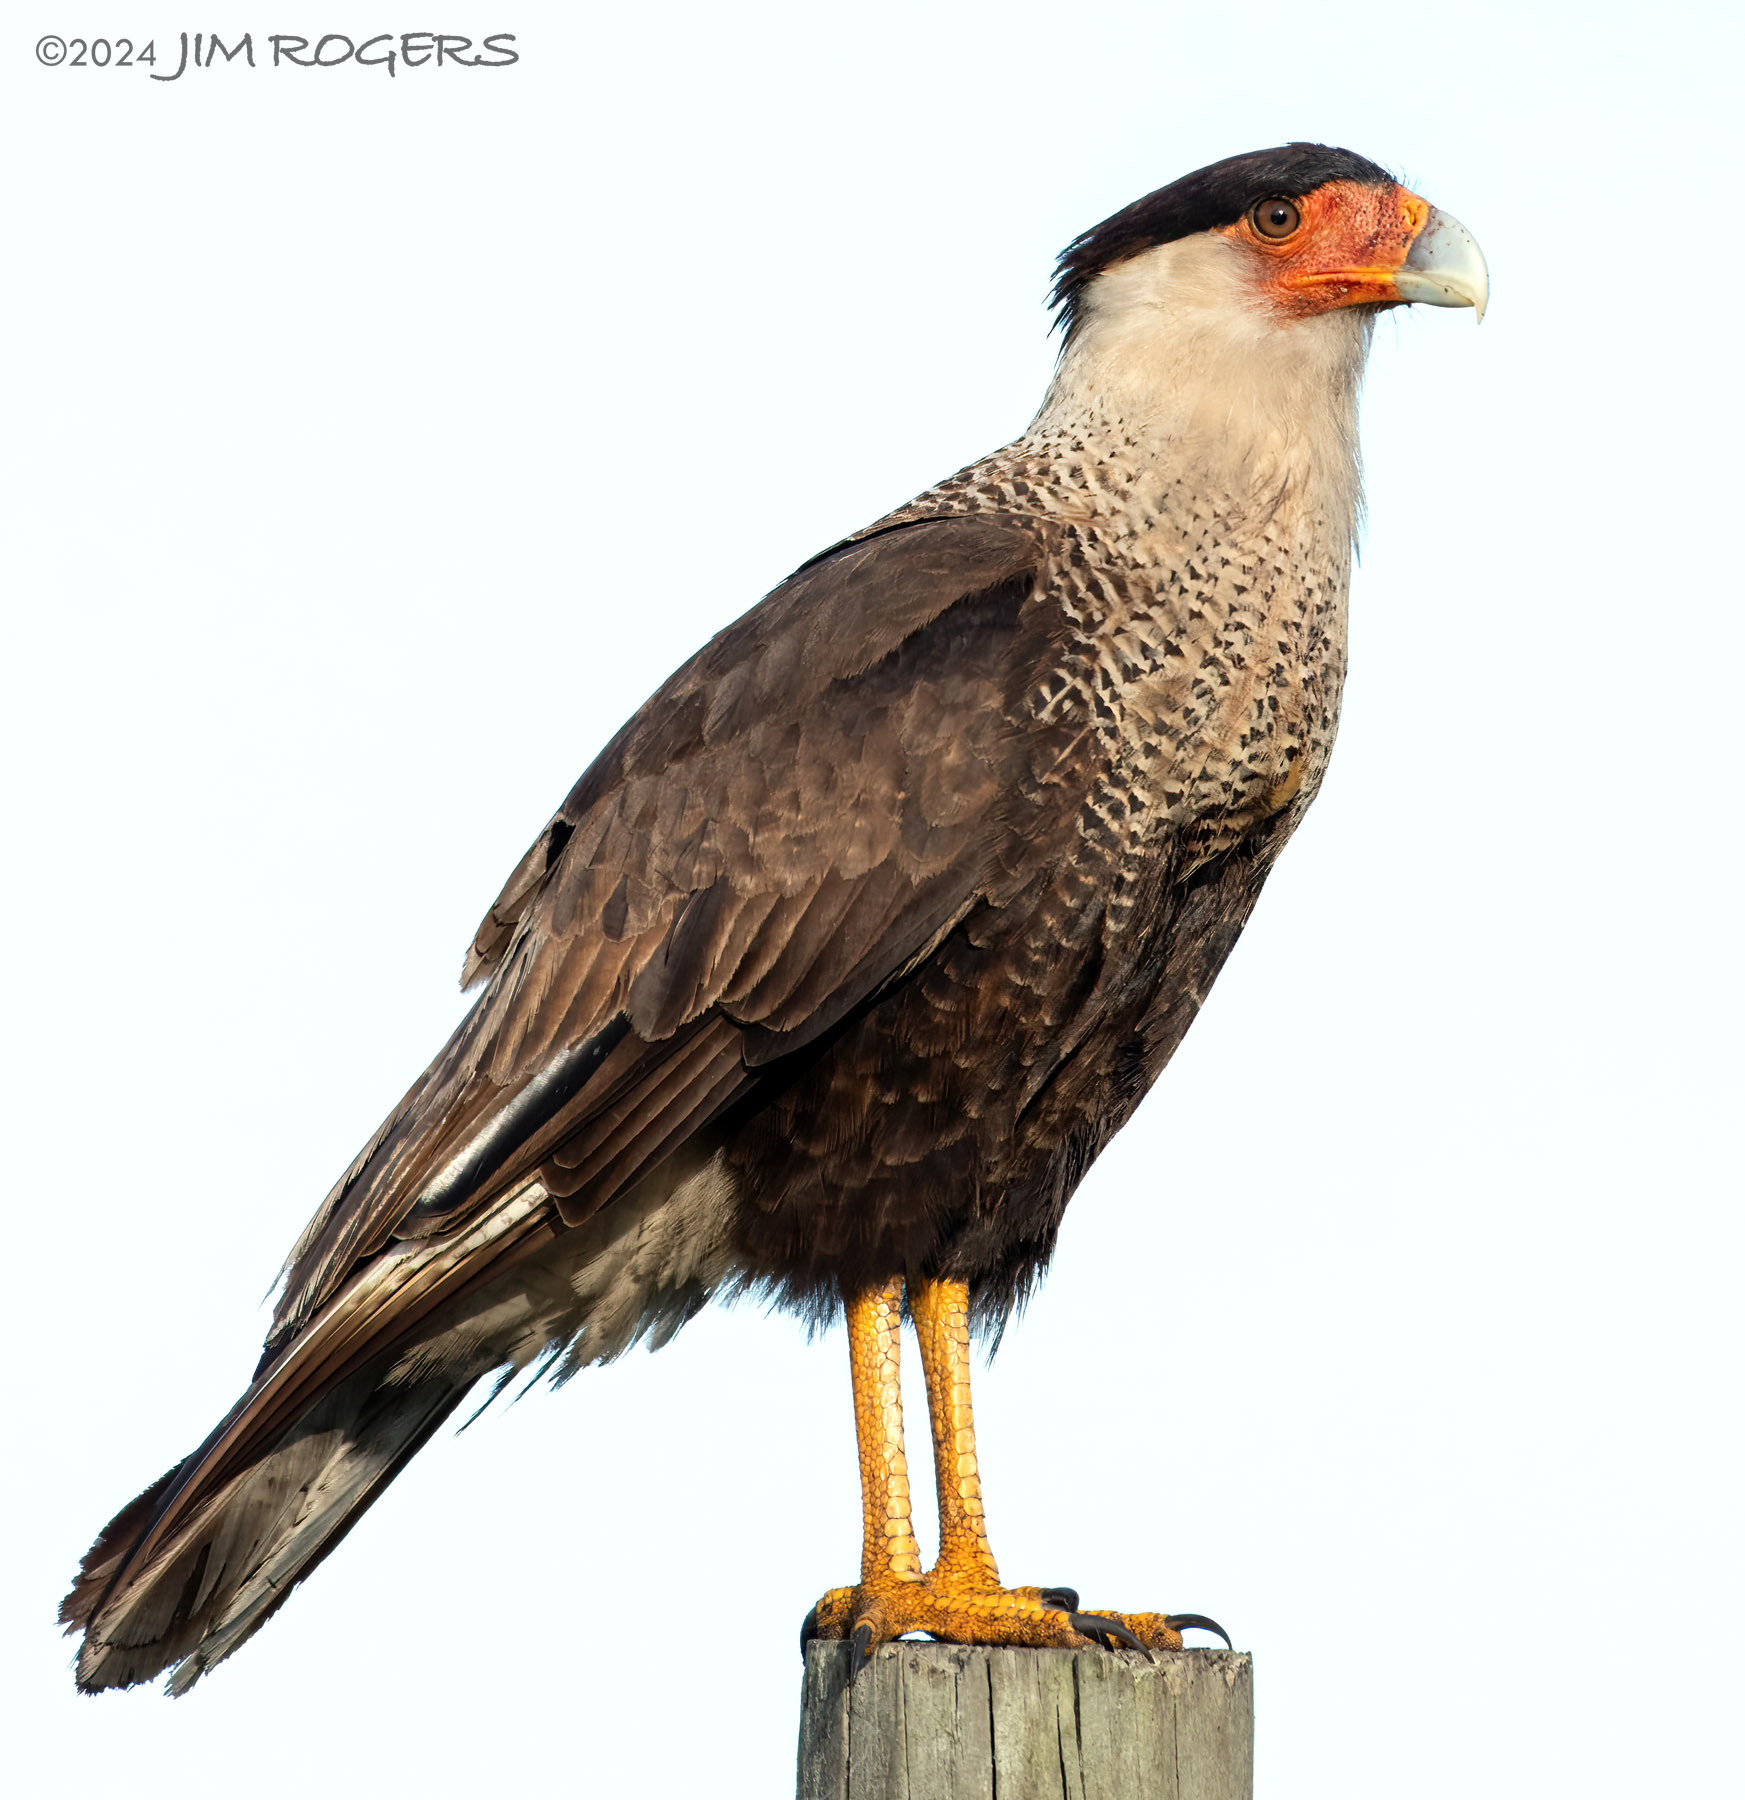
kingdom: Animalia
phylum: Chordata
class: Aves
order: Falconiformes
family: Falconidae
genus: Caracara
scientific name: Caracara plancus
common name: Southern caracara
